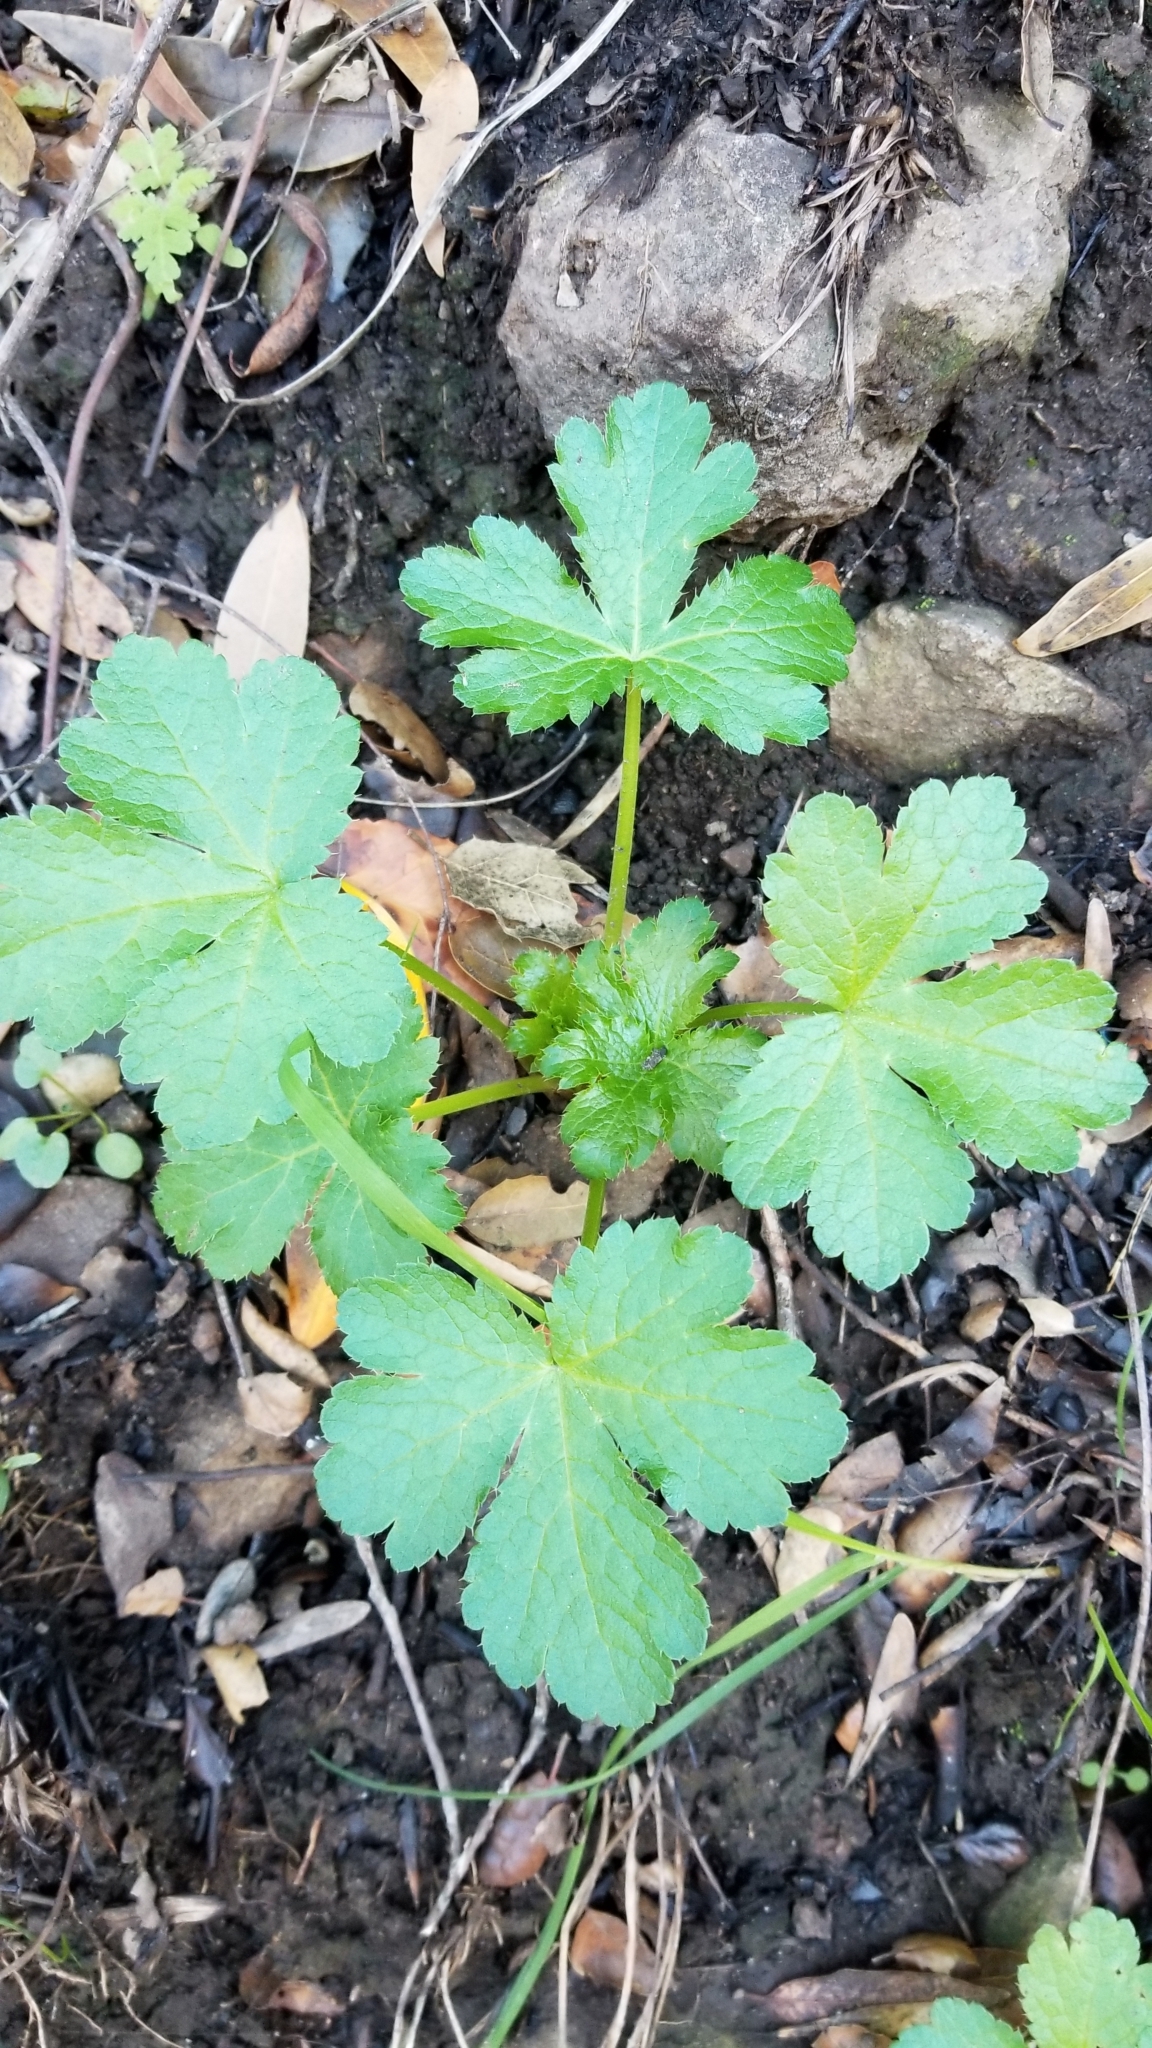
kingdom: Plantae
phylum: Tracheophyta
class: Magnoliopsida
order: Apiales
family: Apiaceae
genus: Sanicula
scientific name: Sanicula crassicaulis
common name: Western snakeroot
